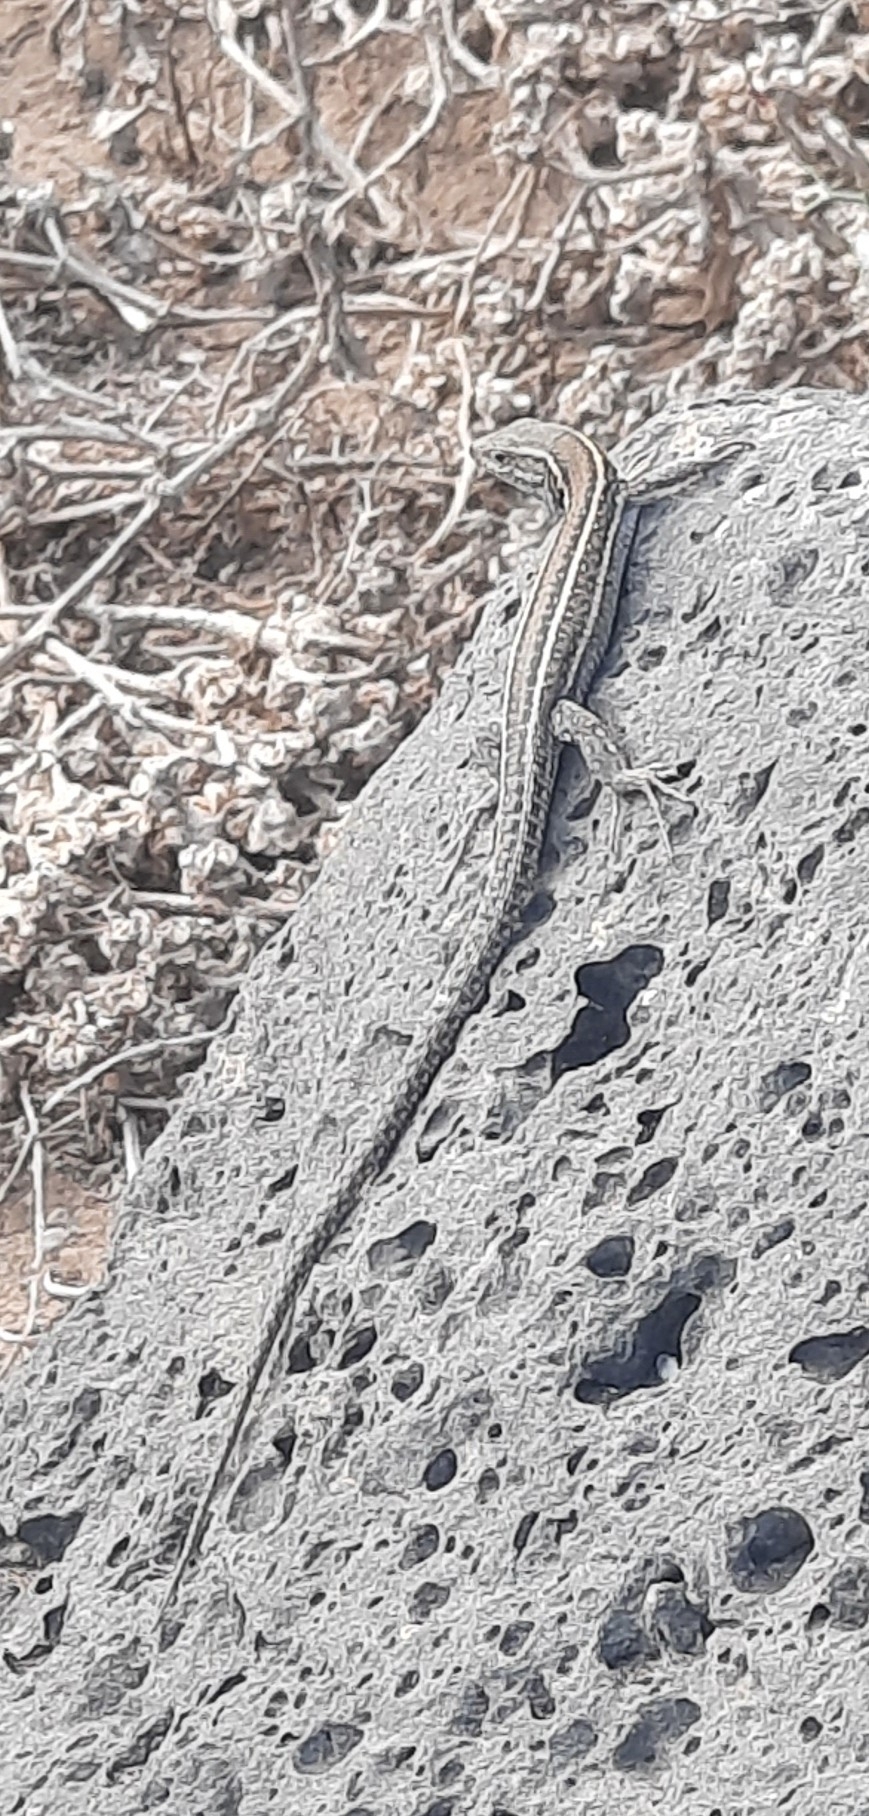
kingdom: Animalia
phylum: Chordata
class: Squamata
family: Lacertidae
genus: Gallotia
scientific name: Gallotia atlantica
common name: Atlantic lizard
